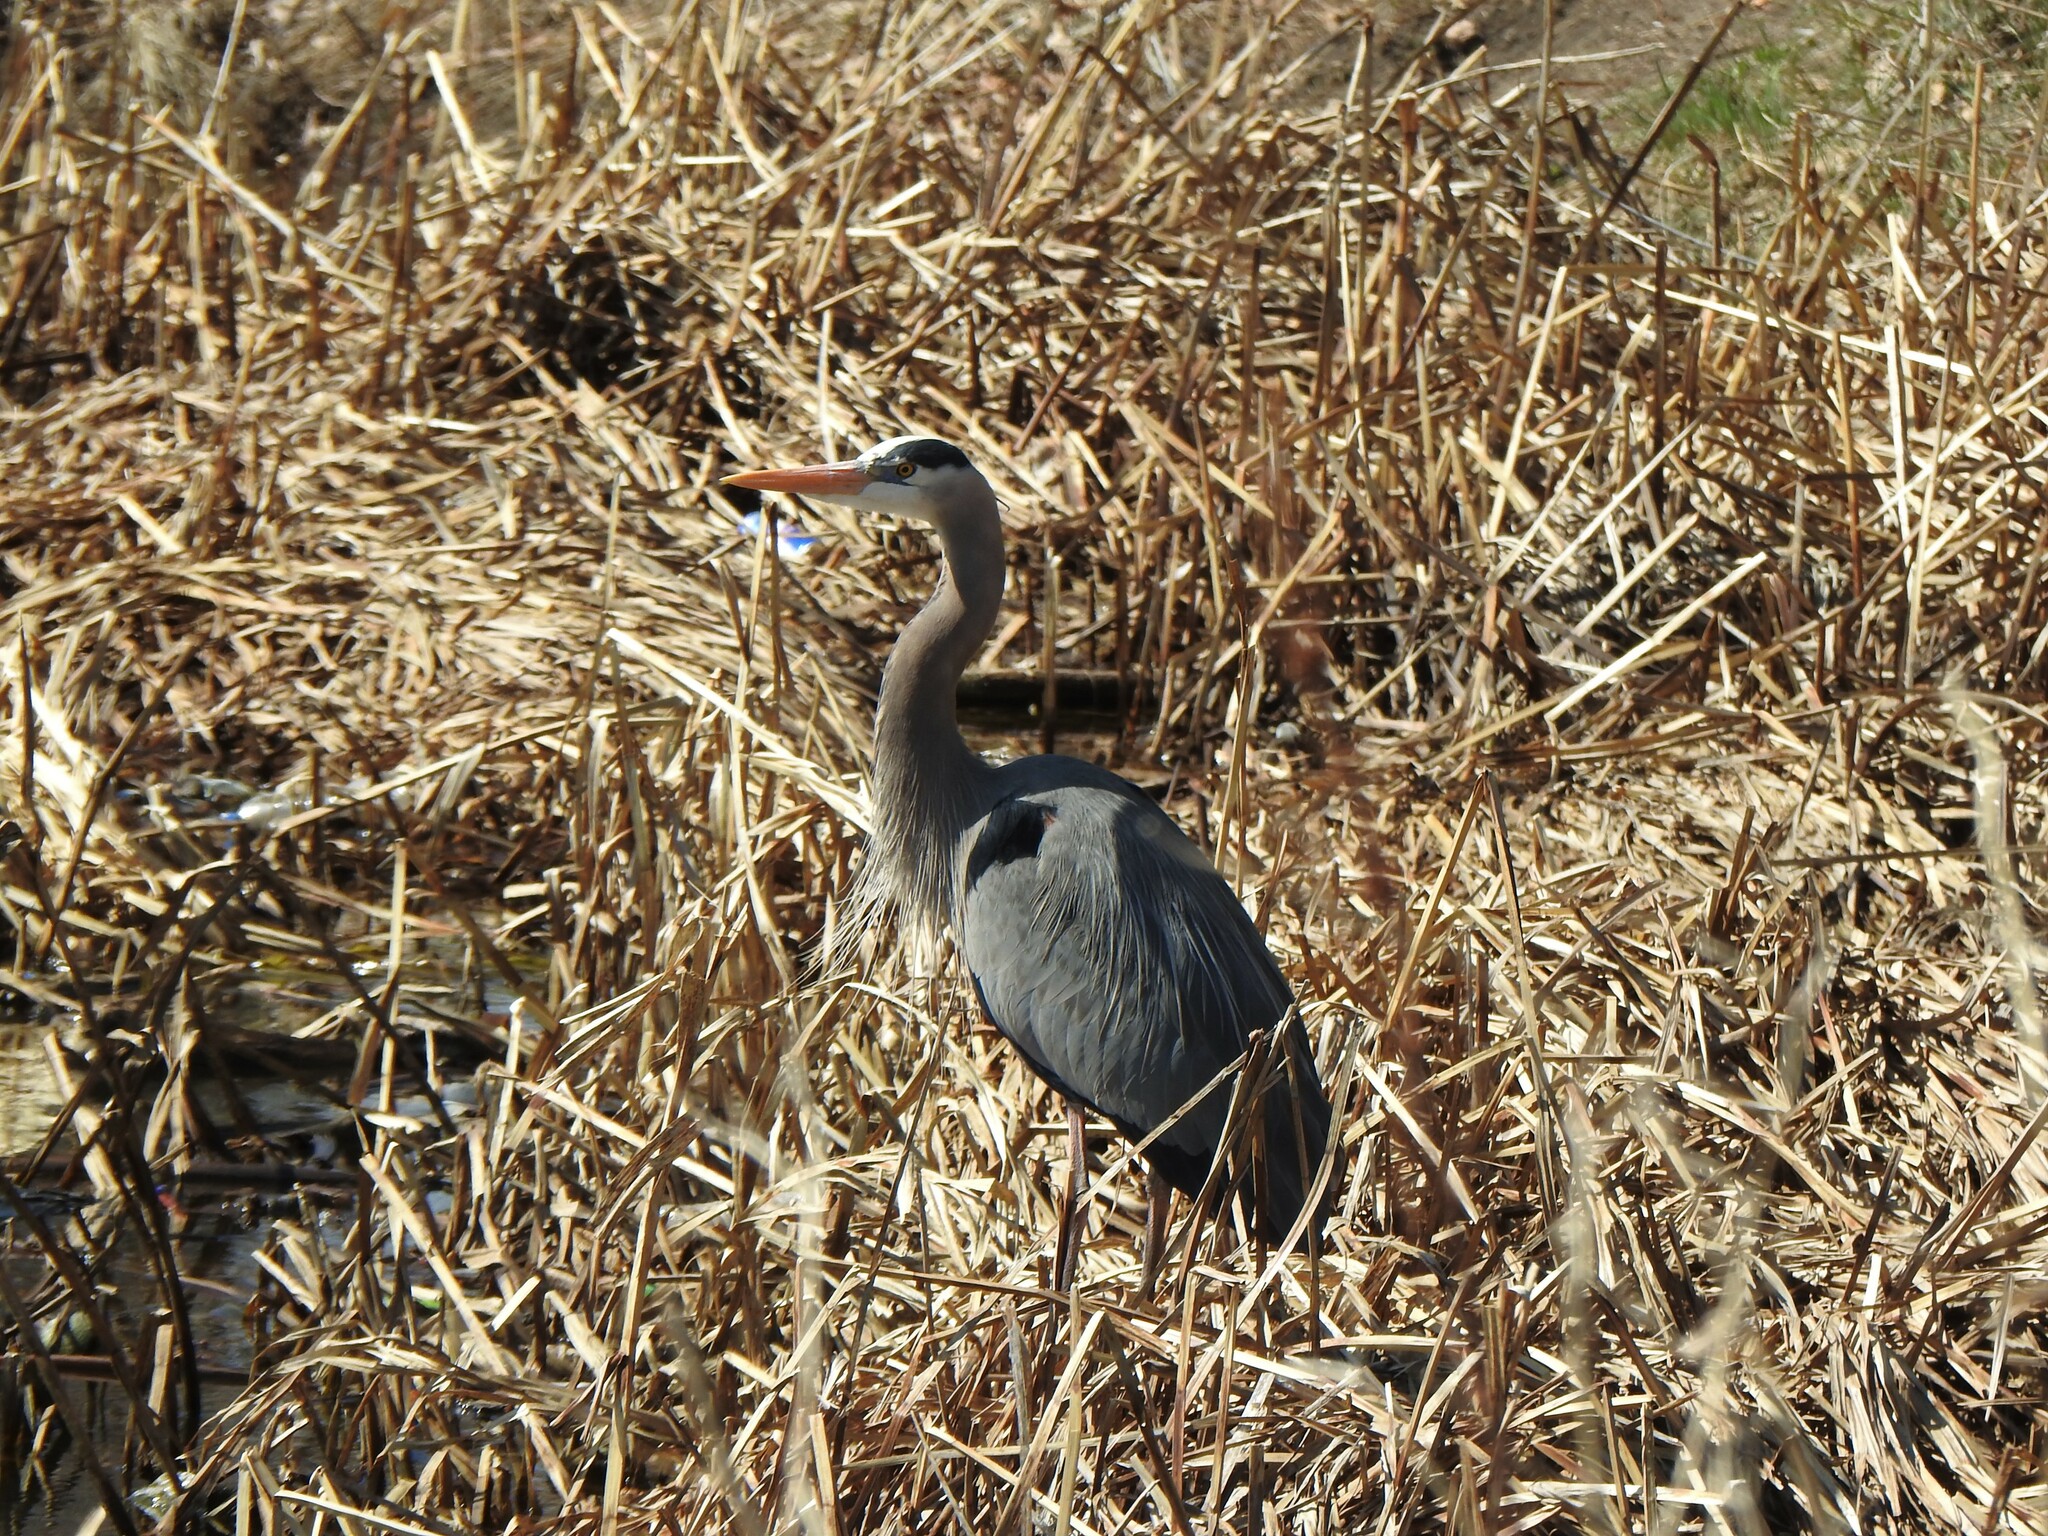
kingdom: Animalia
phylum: Chordata
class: Aves
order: Pelecaniformes
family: Ardeidae
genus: Ardea
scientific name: Ardea herodias
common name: Great blue heron
